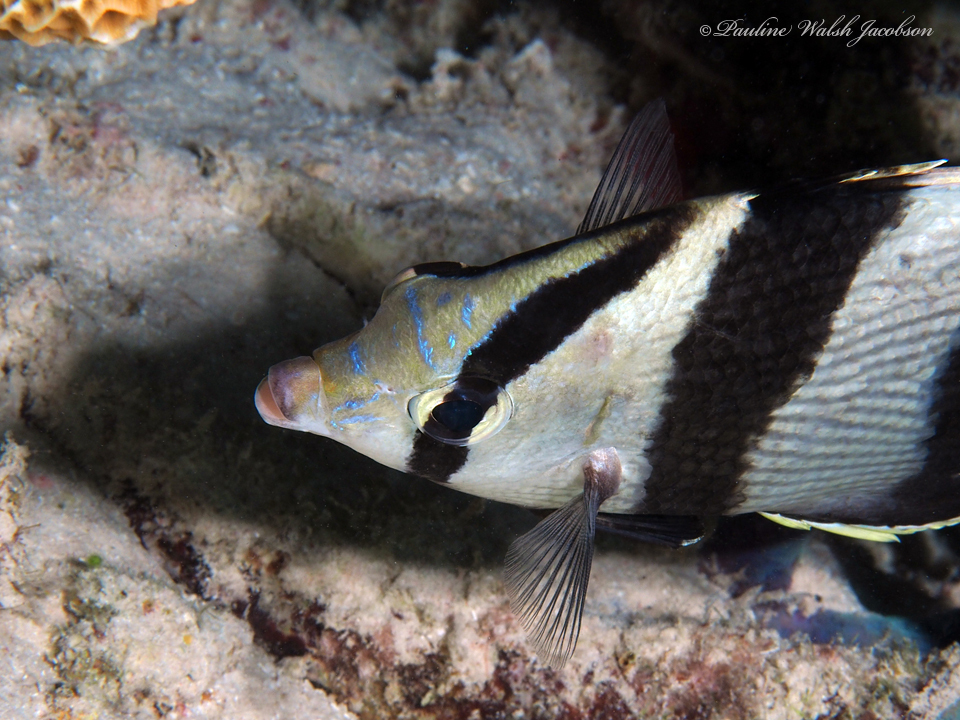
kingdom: Animalia
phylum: Chordata
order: Perciformes
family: Chaetodontidae
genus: Chaetodon
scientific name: Chaetodon striatus
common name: Banded butterflyfish
